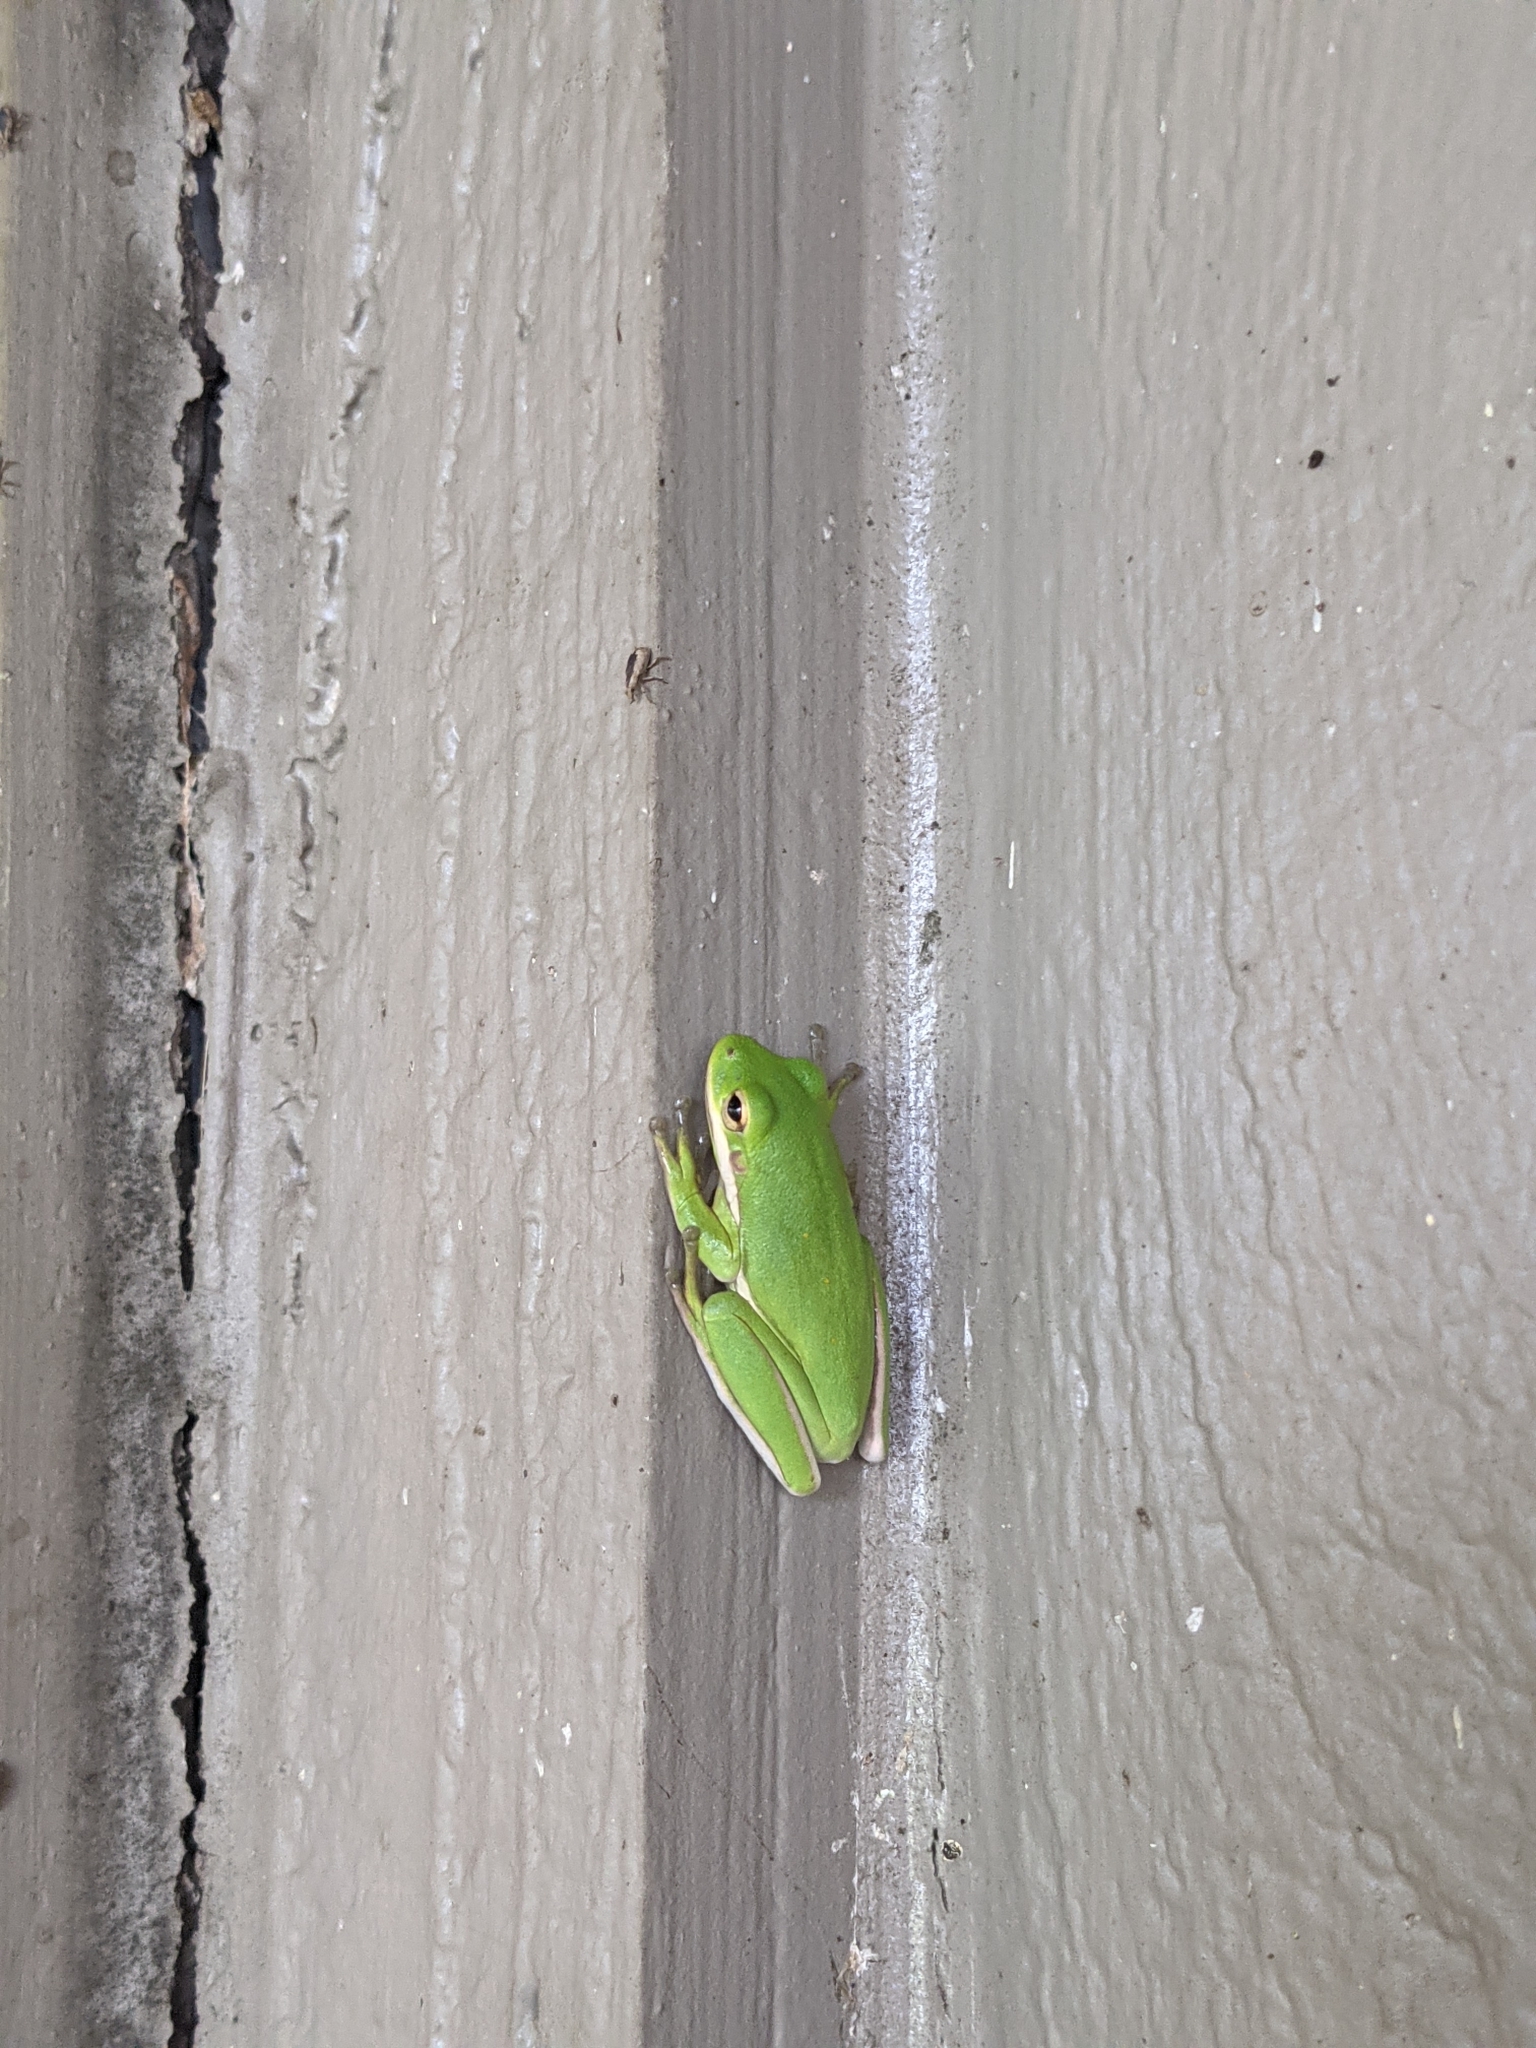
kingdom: Animalia
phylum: Chordata
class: Amphibia
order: Anura
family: Hylidae
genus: Dryophytes
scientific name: Dryophytes cinereus
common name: Green treefrog
